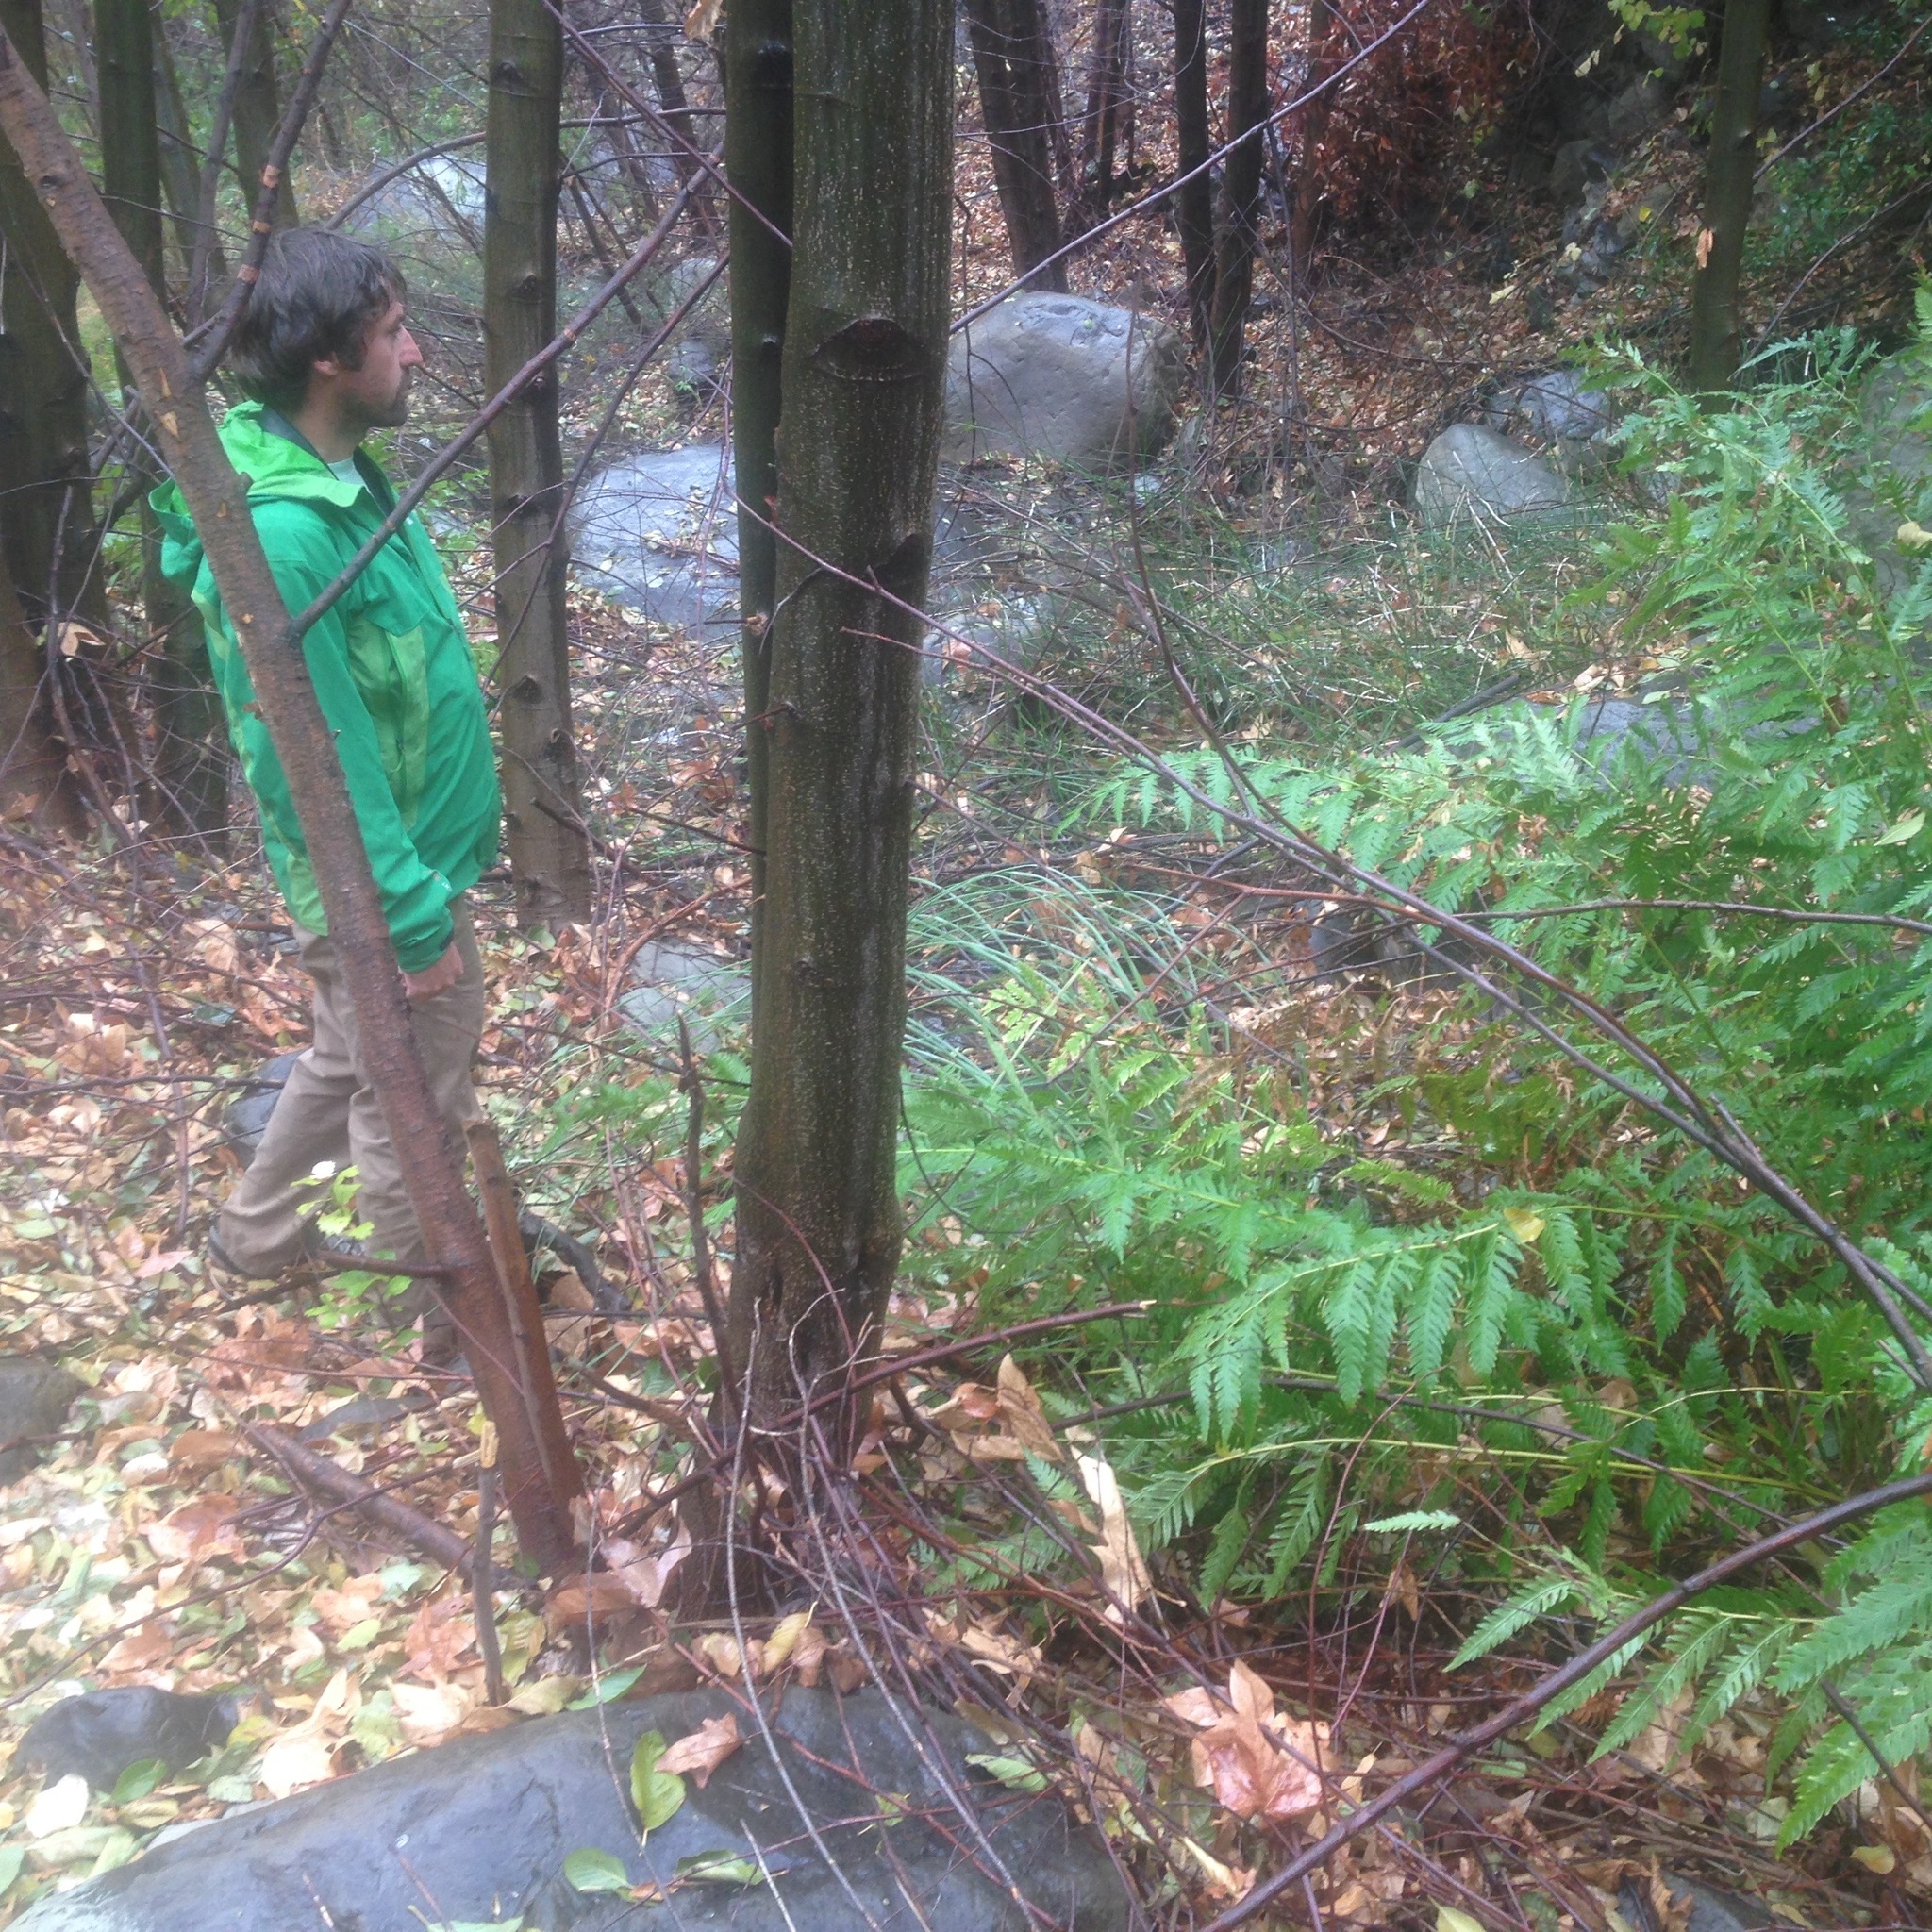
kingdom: Plantae
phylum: Tracheophyta
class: Polypodiopsida
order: Polypodiales
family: Blechnaceae
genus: Woodwardia
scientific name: Woodwardia fimbriata
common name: Giant chain fern
